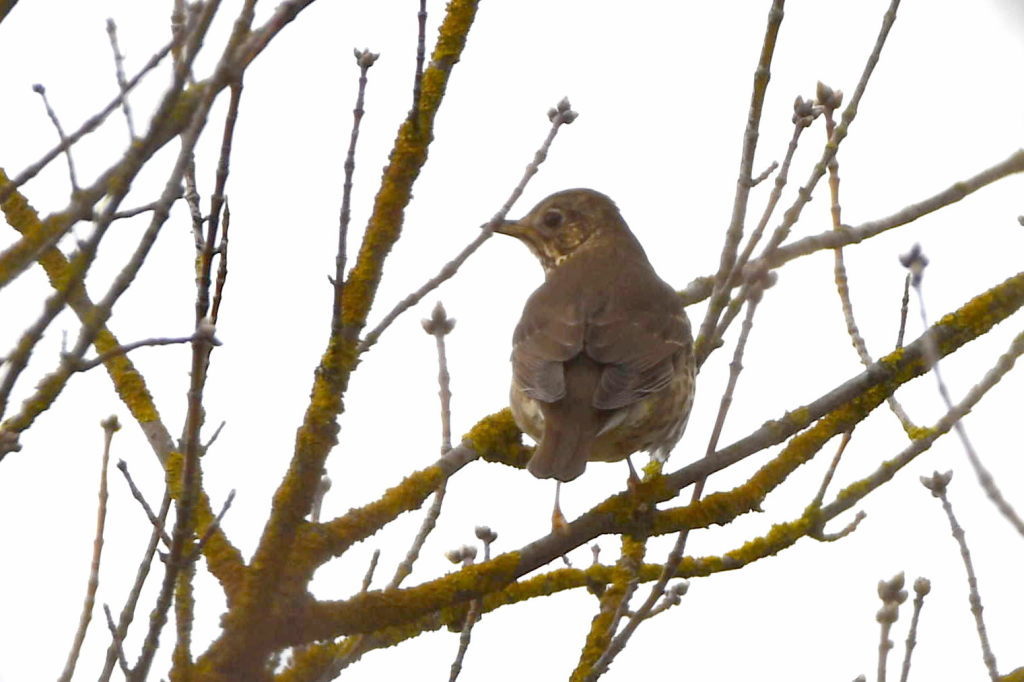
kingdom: Animalia
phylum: Chordata
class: Aves
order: Passeriformes
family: Turdidae
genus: Turdus
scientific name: Turdus philomelos
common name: Song thrush
